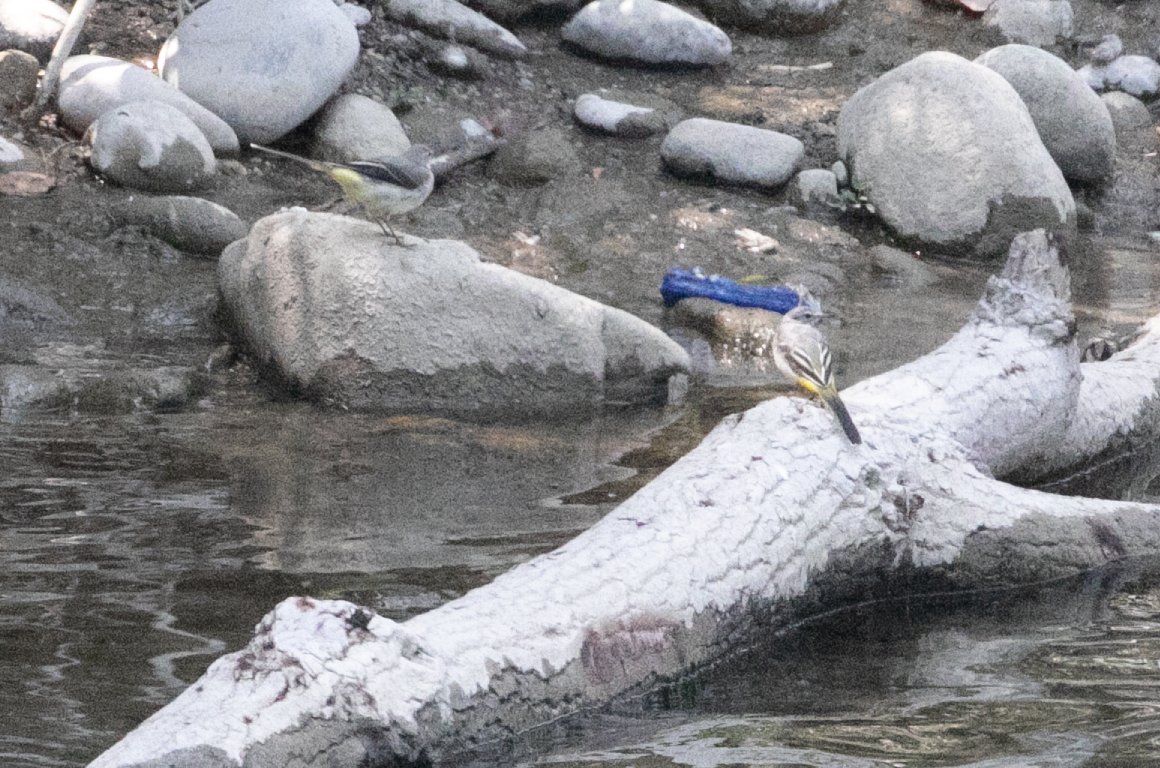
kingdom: Animalia
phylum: Chordata
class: Aves
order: Passeriformes
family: Motacillidae
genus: Motacilla
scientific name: Motacilla cinerea
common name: Grey wagtail
